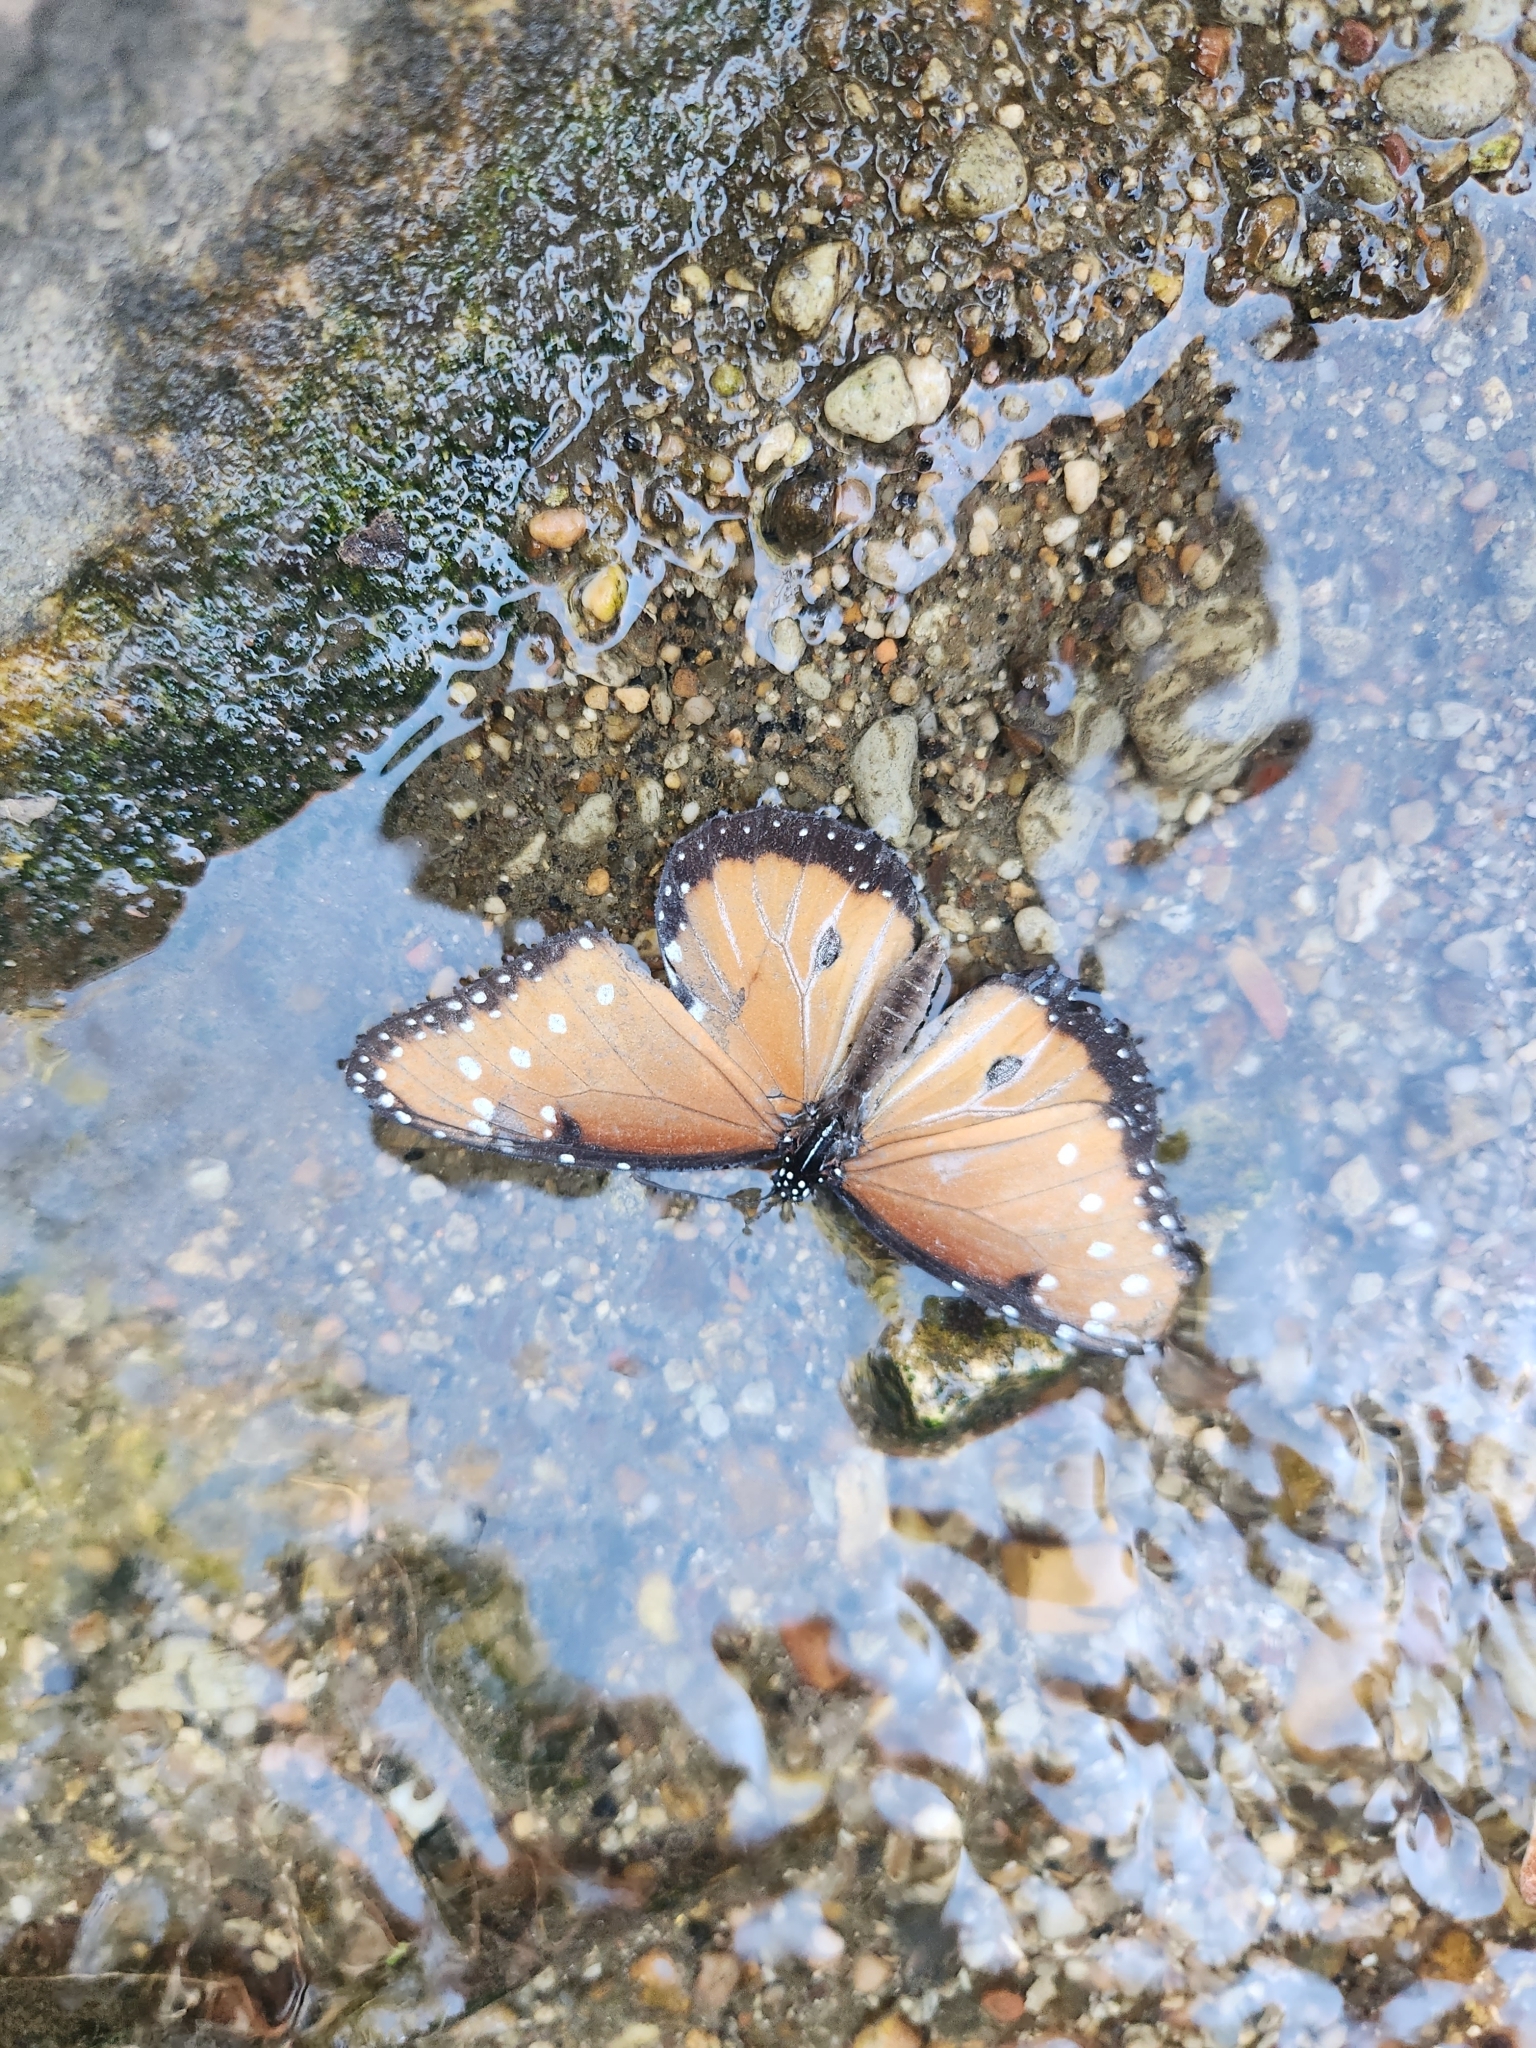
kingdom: Animalia
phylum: Arthropoda
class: Insecta
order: Lepidoptera
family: Nymphalidae
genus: Danaus
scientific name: Danaus gilippus
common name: Queen
